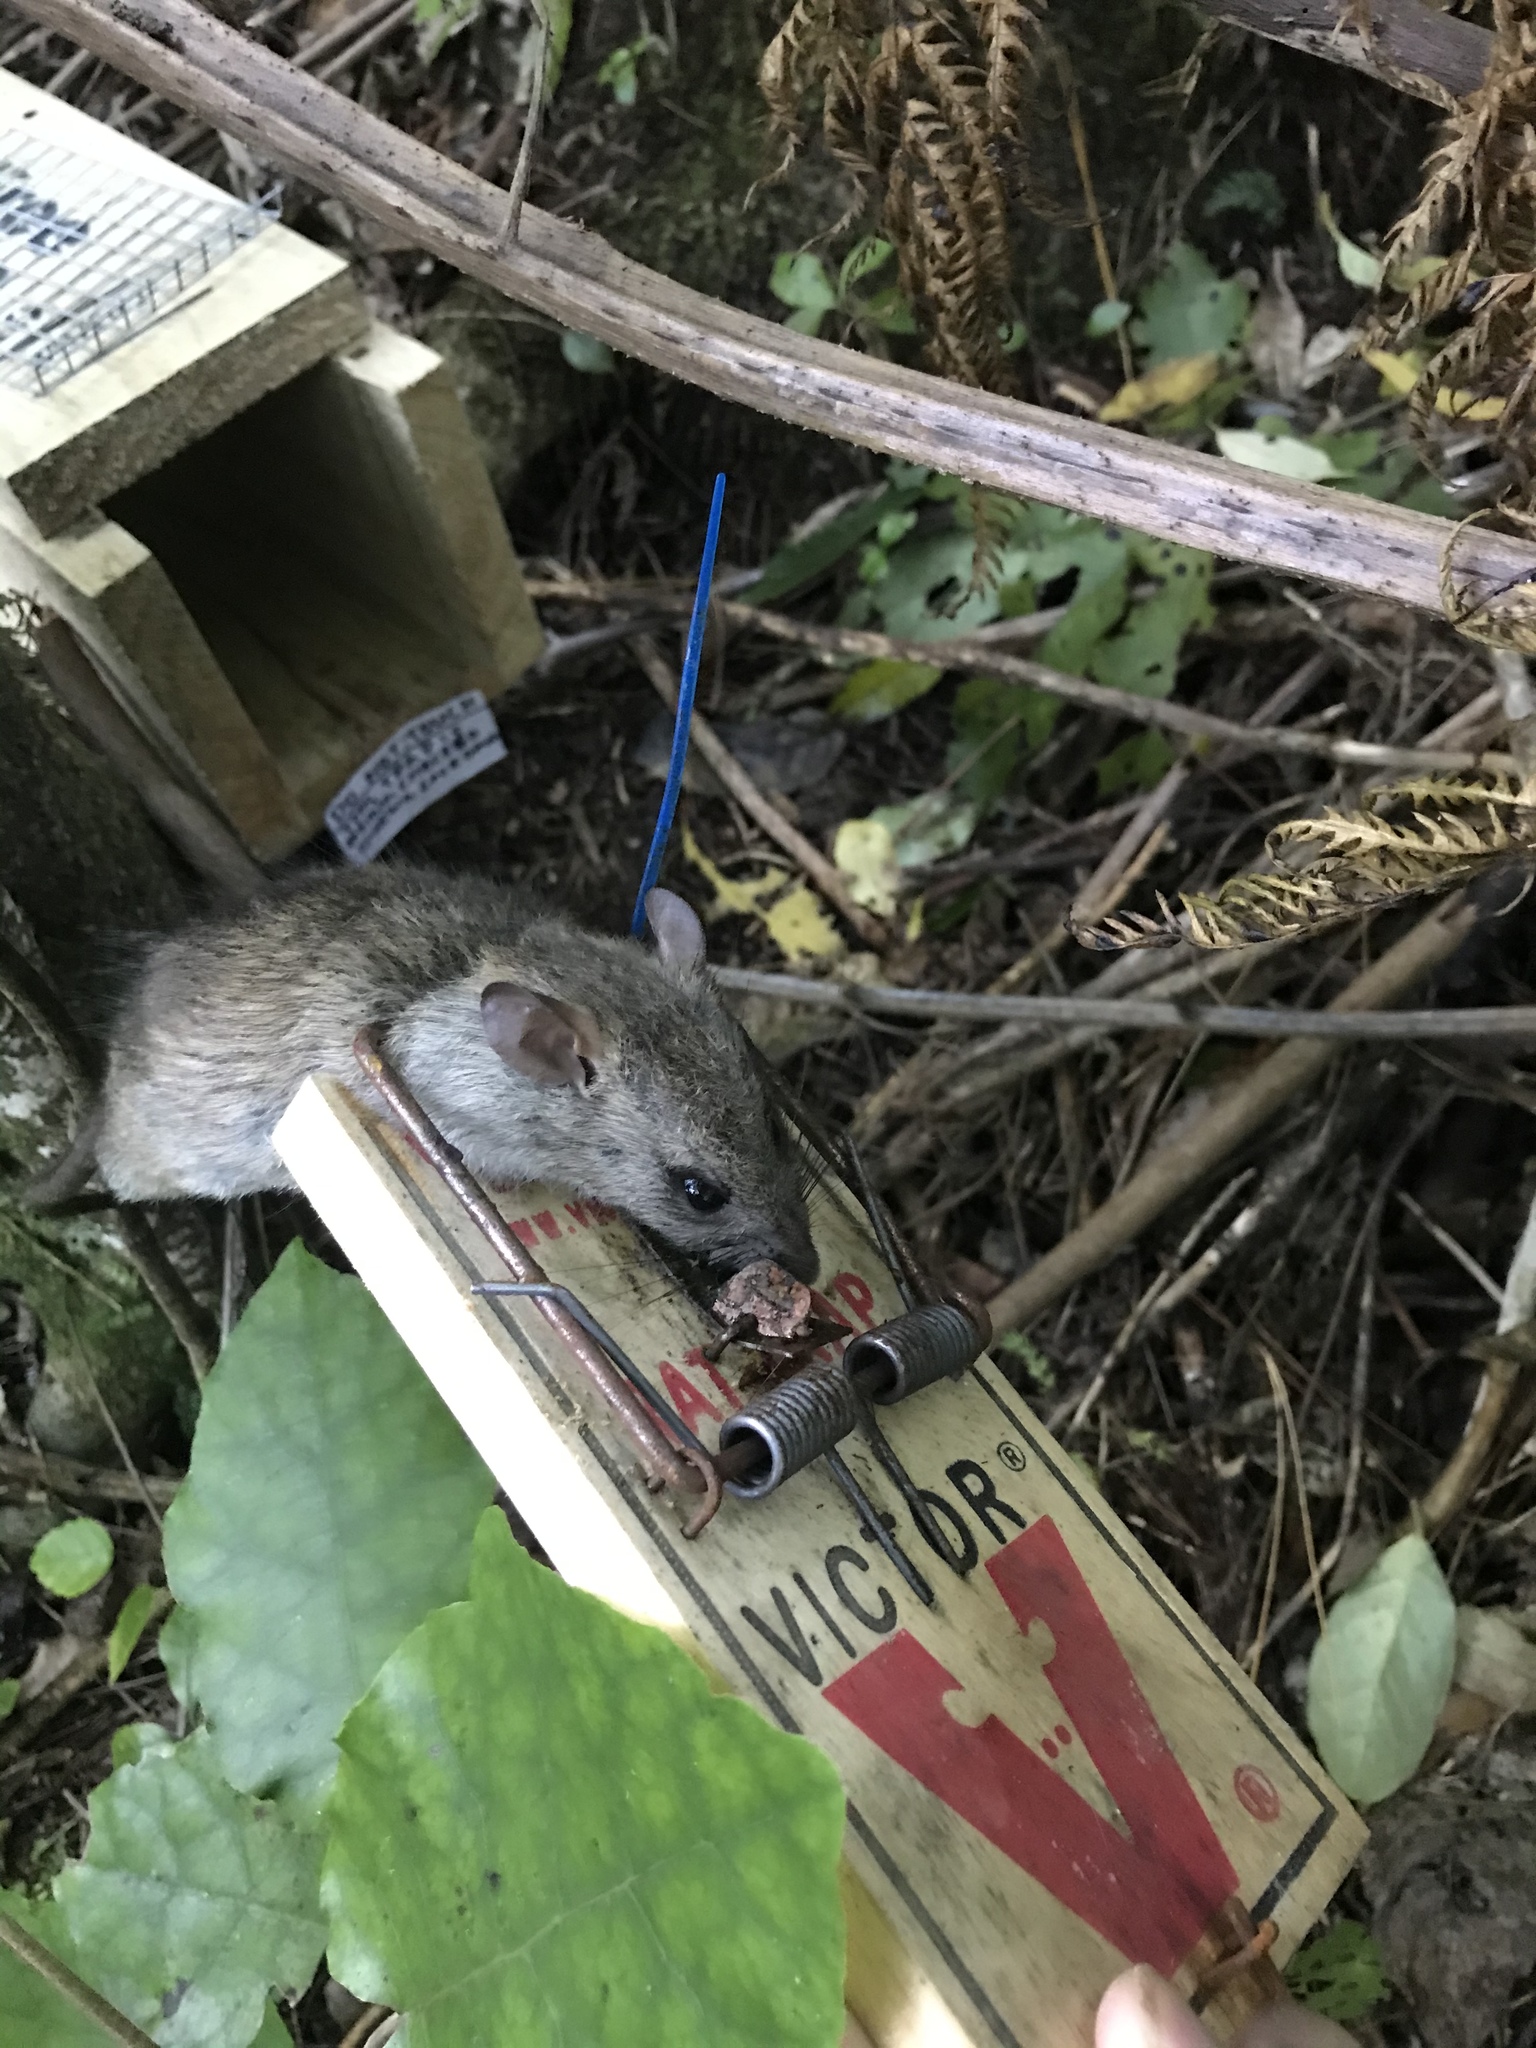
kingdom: Animalia
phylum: Chordata
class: Mammalia
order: Rodentia
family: Muridae
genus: Rattus
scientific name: Rattus rattus
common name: Black rat
